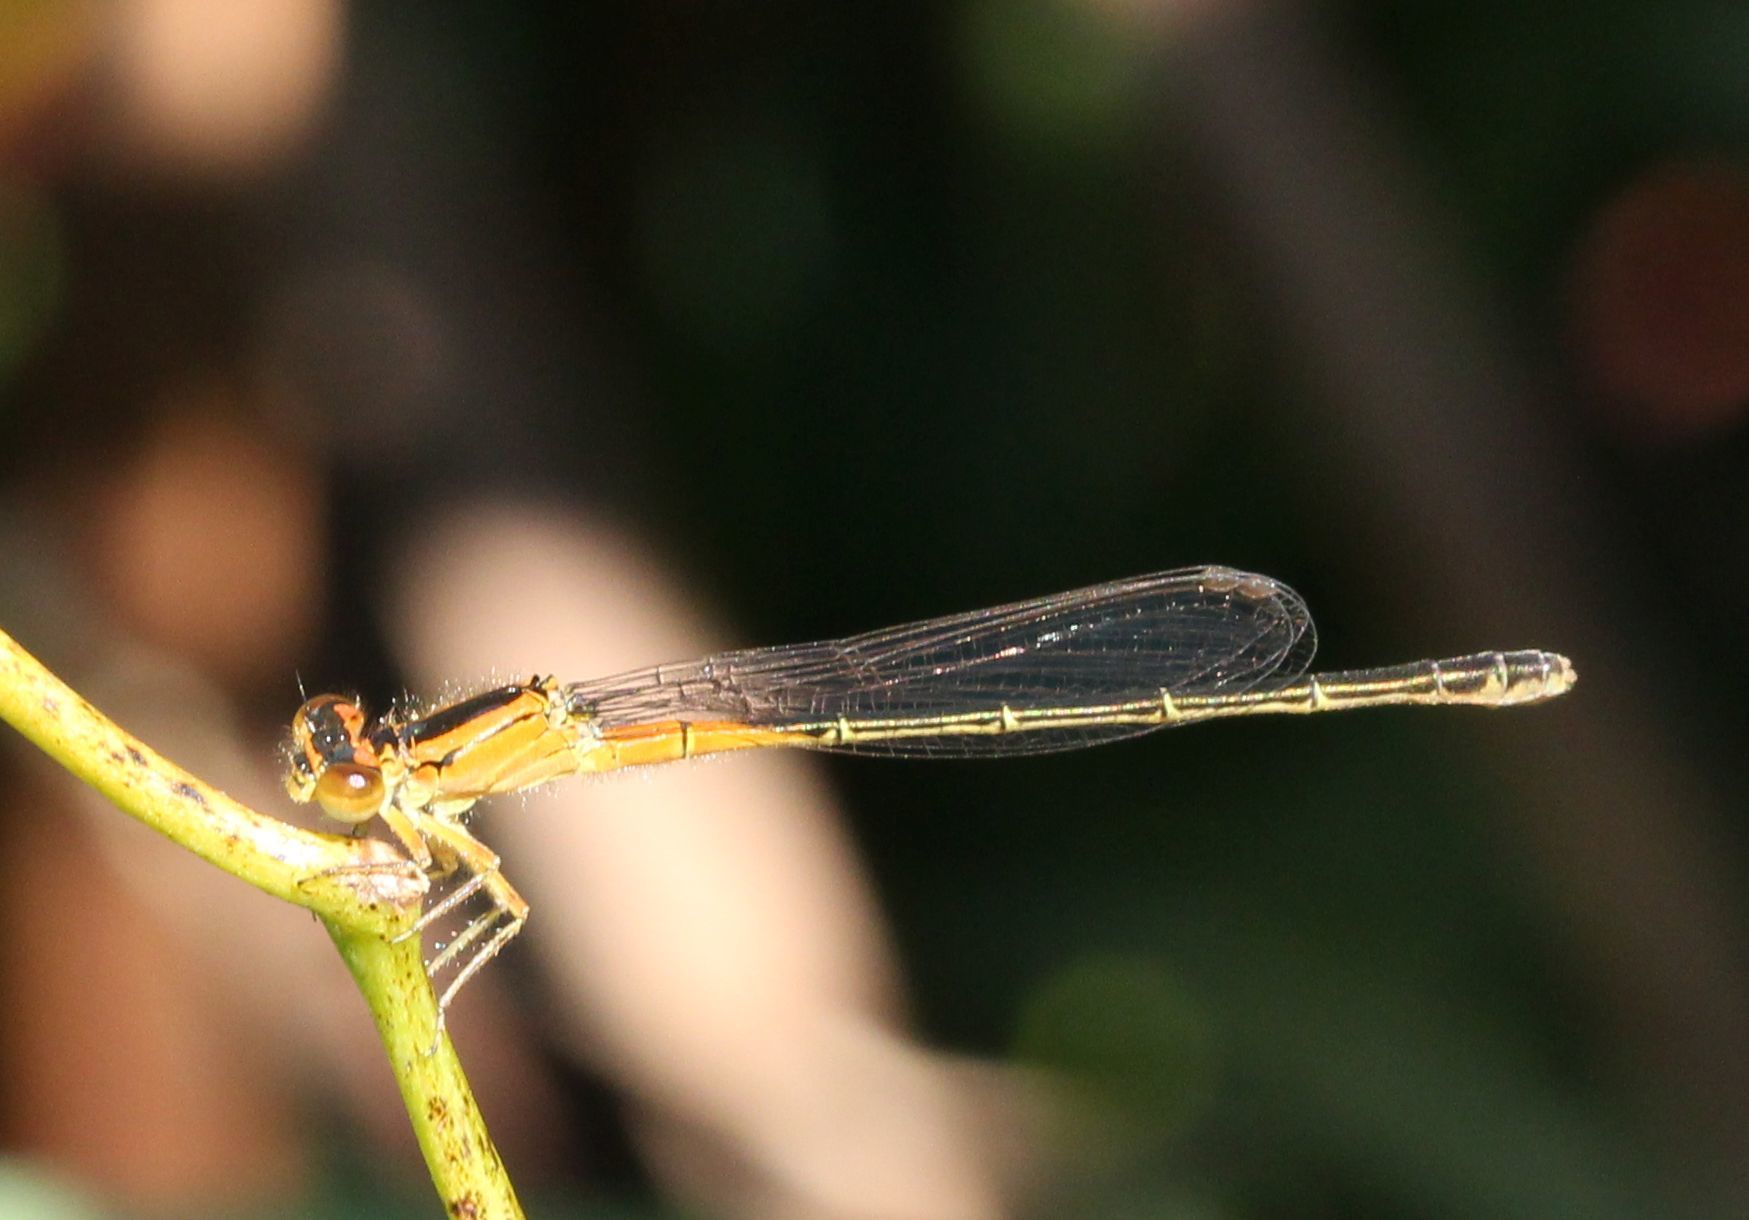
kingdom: Animalia
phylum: Arthropoda
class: Insecta
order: Odonata
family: Coenagrionidae
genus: Ischnura
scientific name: Ischnura verticalis
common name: Eastern forktail
